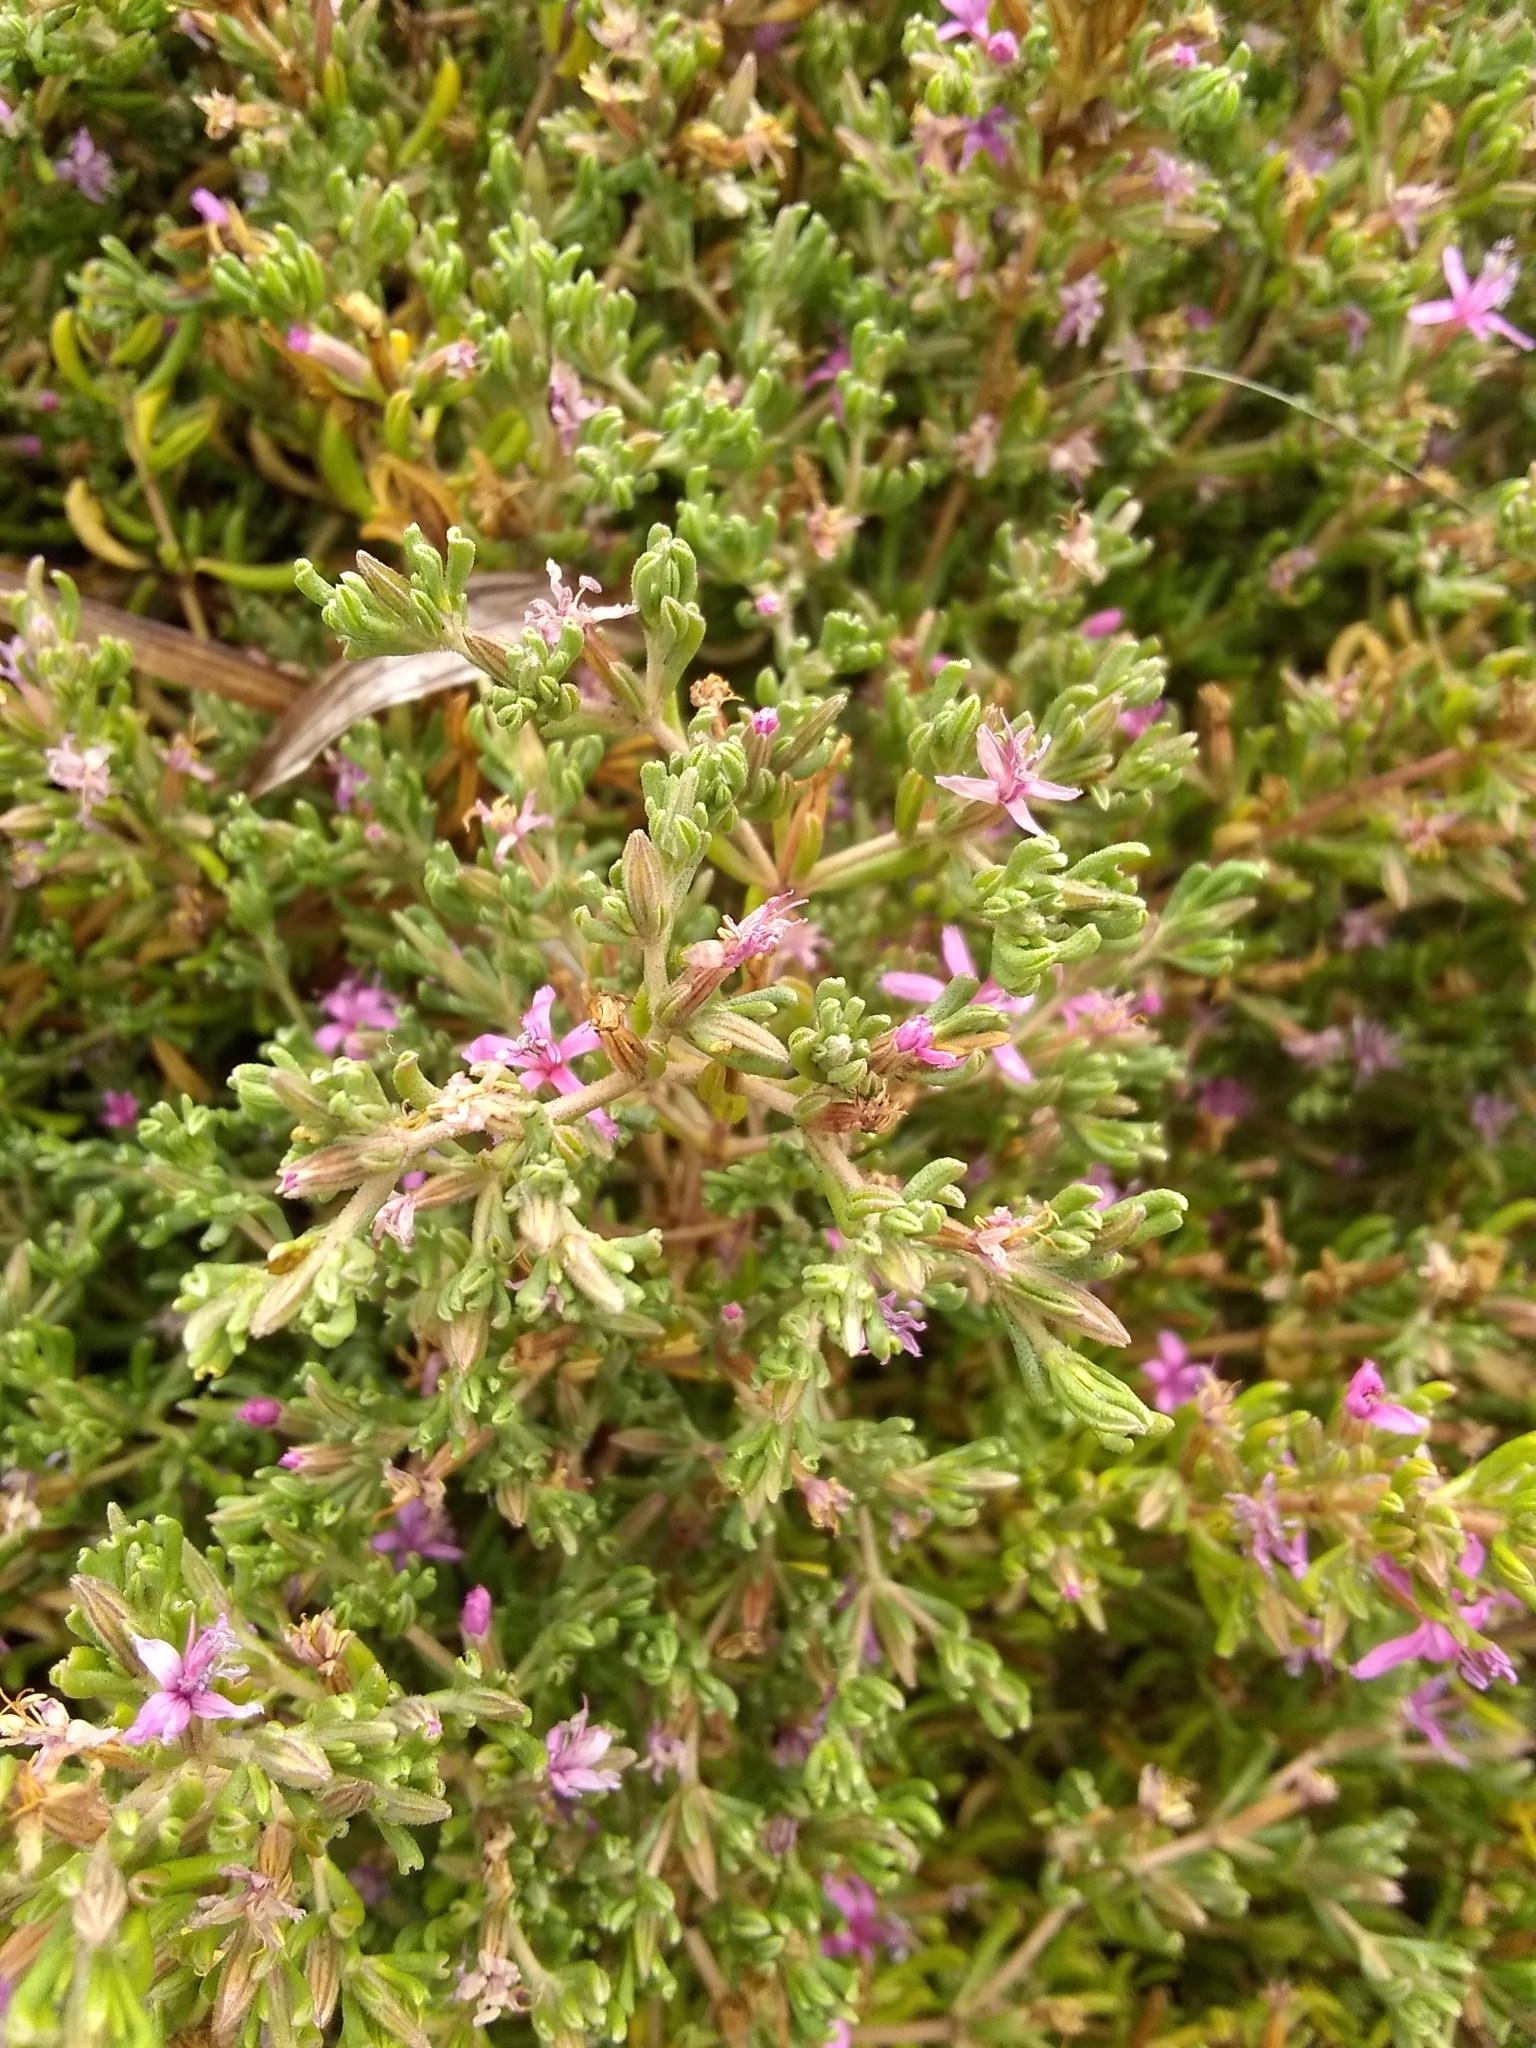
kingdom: Plantae
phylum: Tracheophyta
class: Magnoliopsida
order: Caryophyllales
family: Frankeniaceae
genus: Frankenia
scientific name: Frankenia salina
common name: Alkali seaheath
